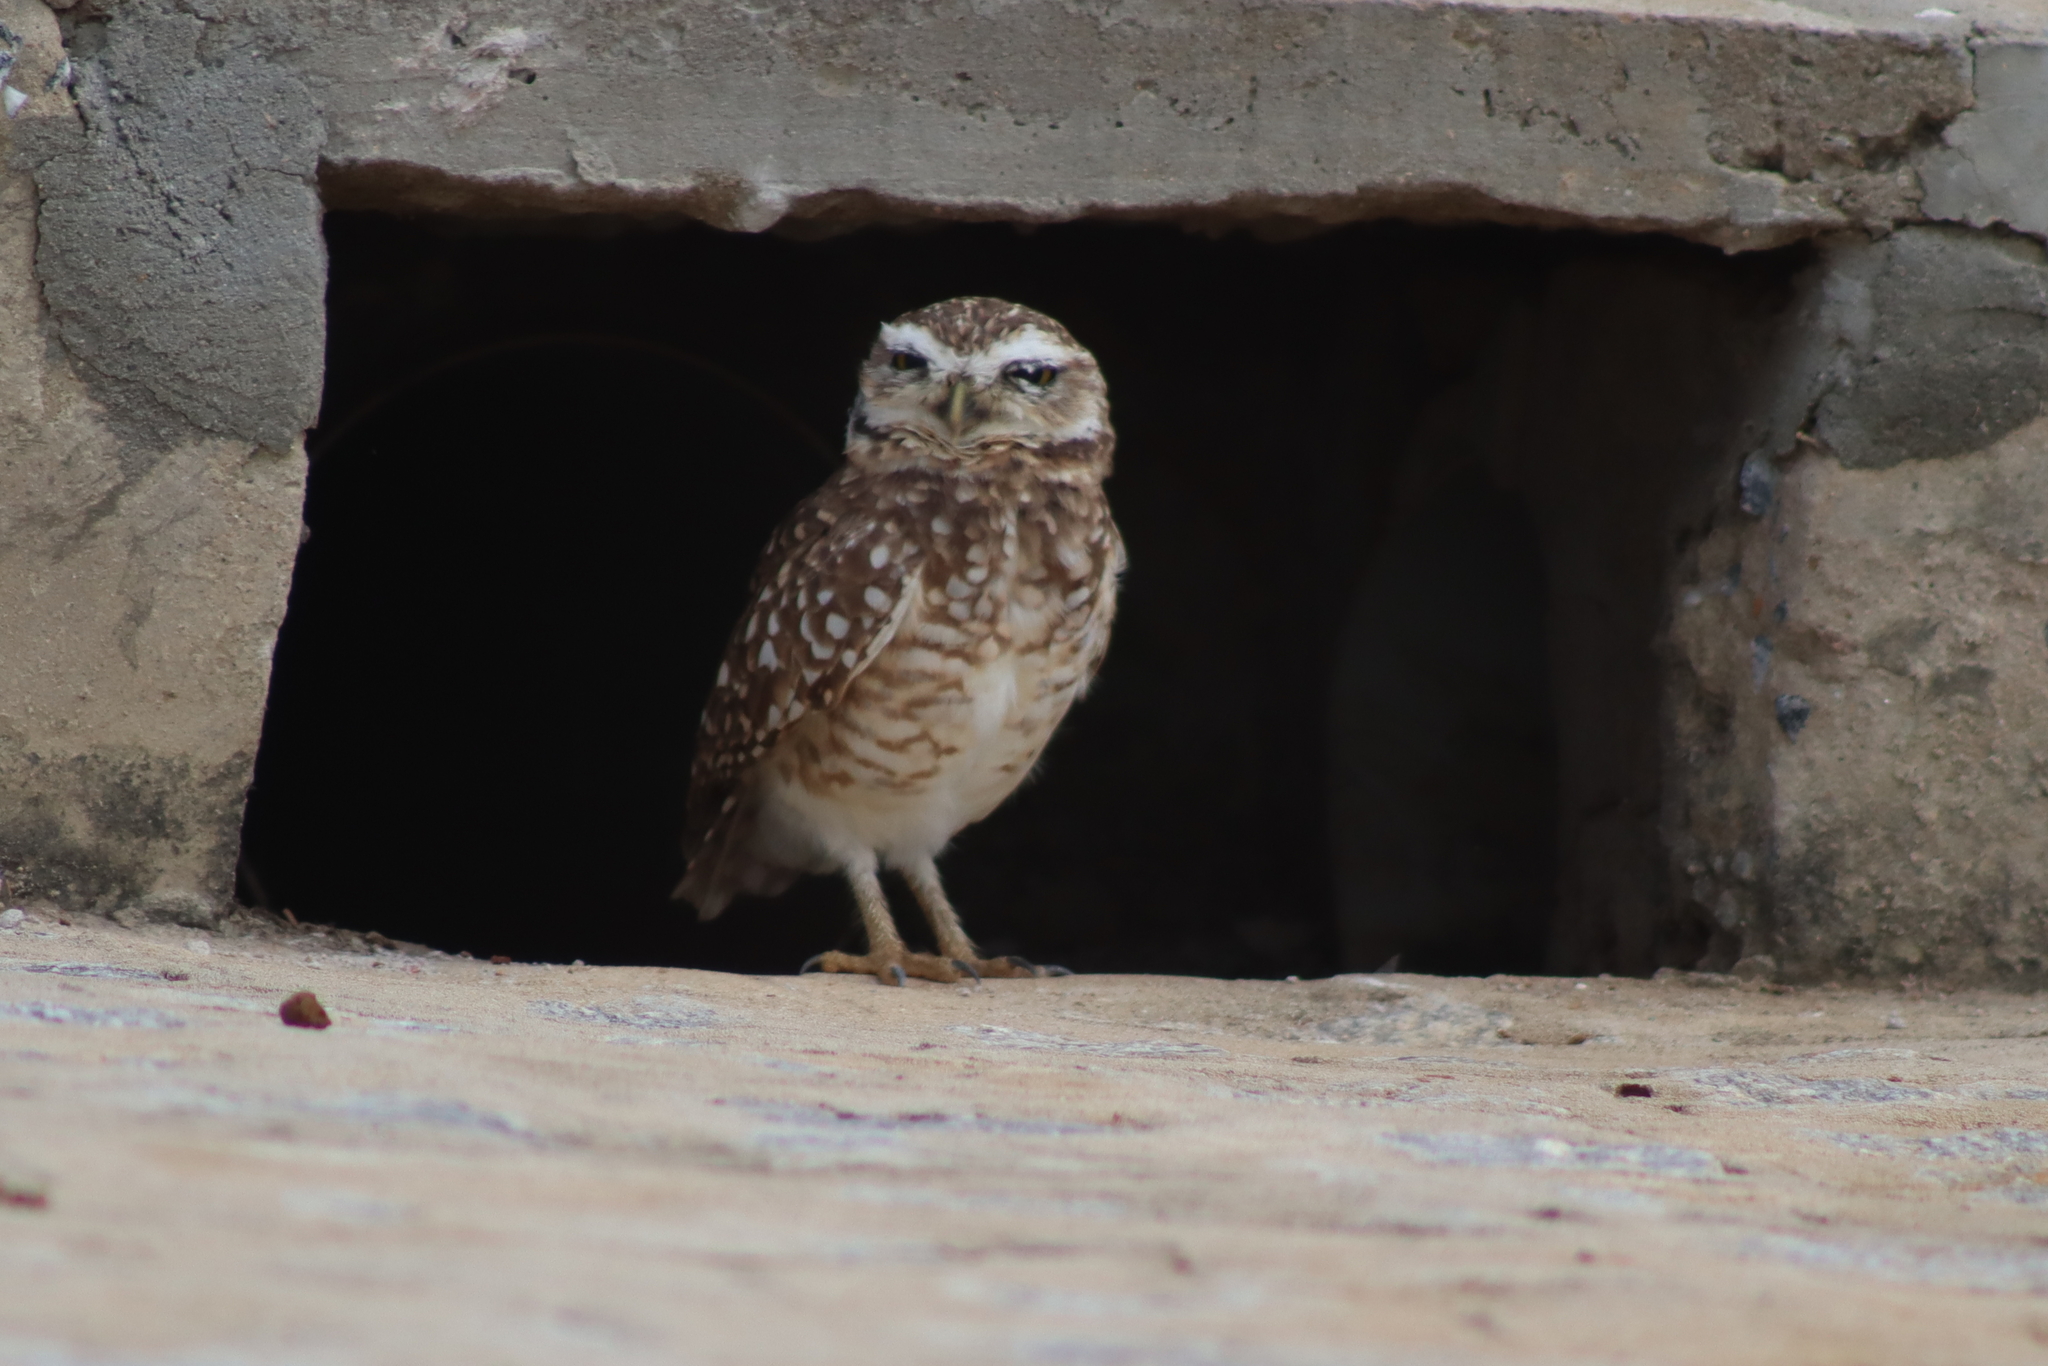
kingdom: Animalia
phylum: Chordata
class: Aves
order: Strigiformes
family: Strigidae
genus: Athene
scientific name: Athene cunicularia
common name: Burrowing owl
